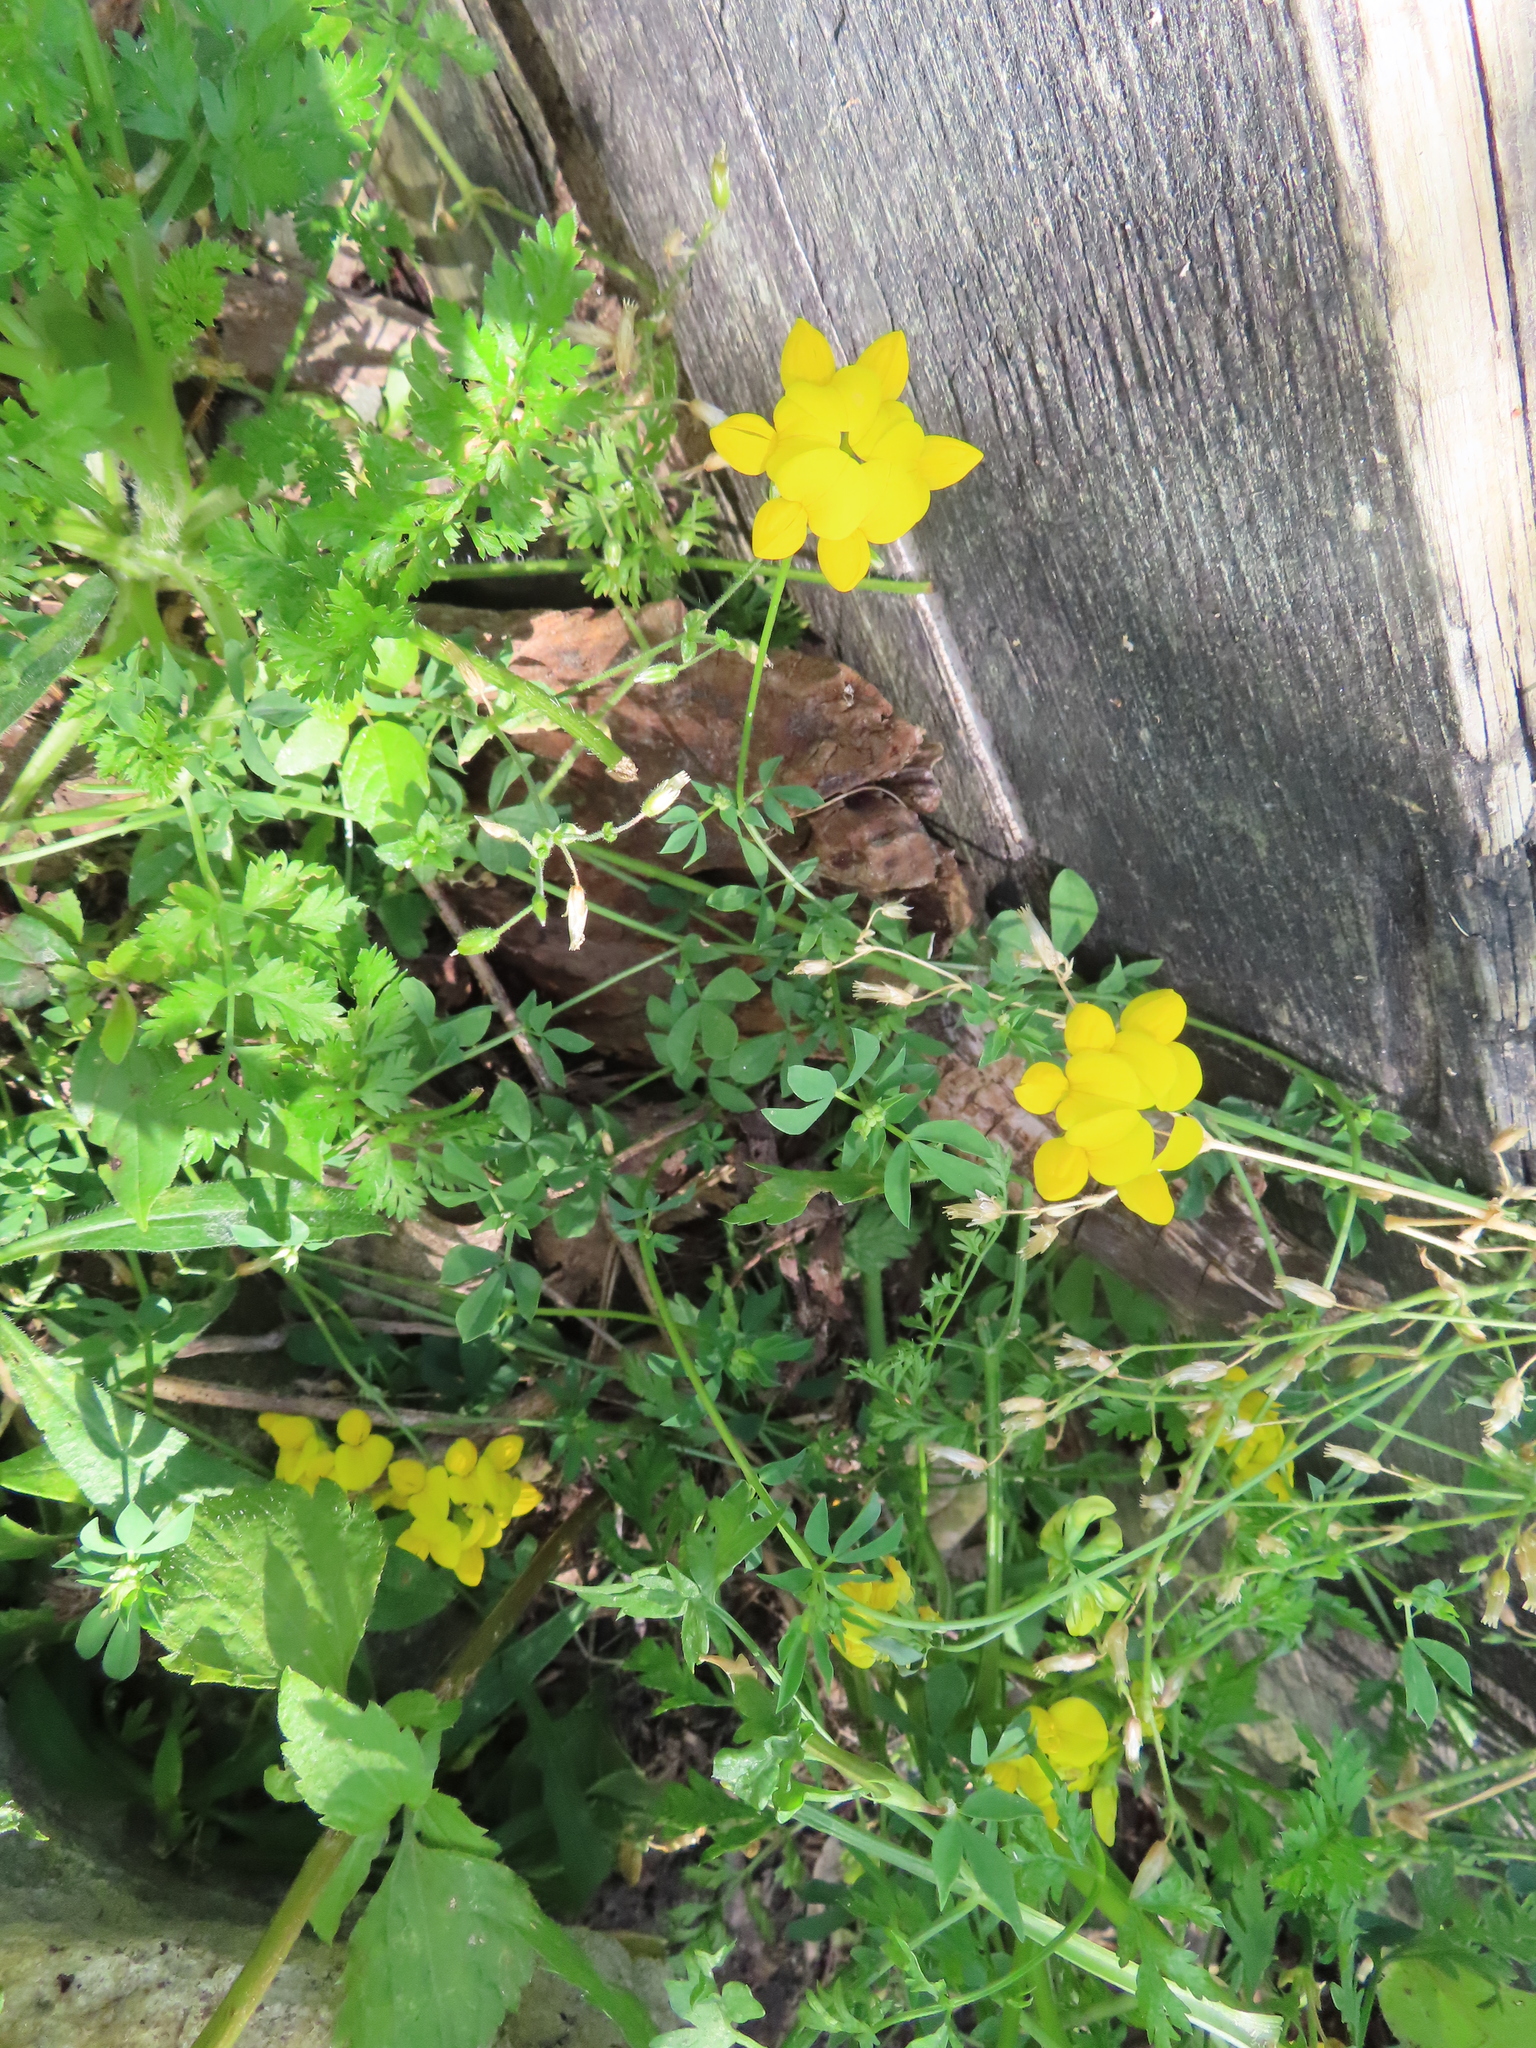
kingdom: Plantae
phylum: Tracheophyta
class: Magnoliopsida
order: Fabales
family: Fabaceae
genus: Lotus
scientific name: Lotus corniculatus
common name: Common bird's-foot-trefoil
